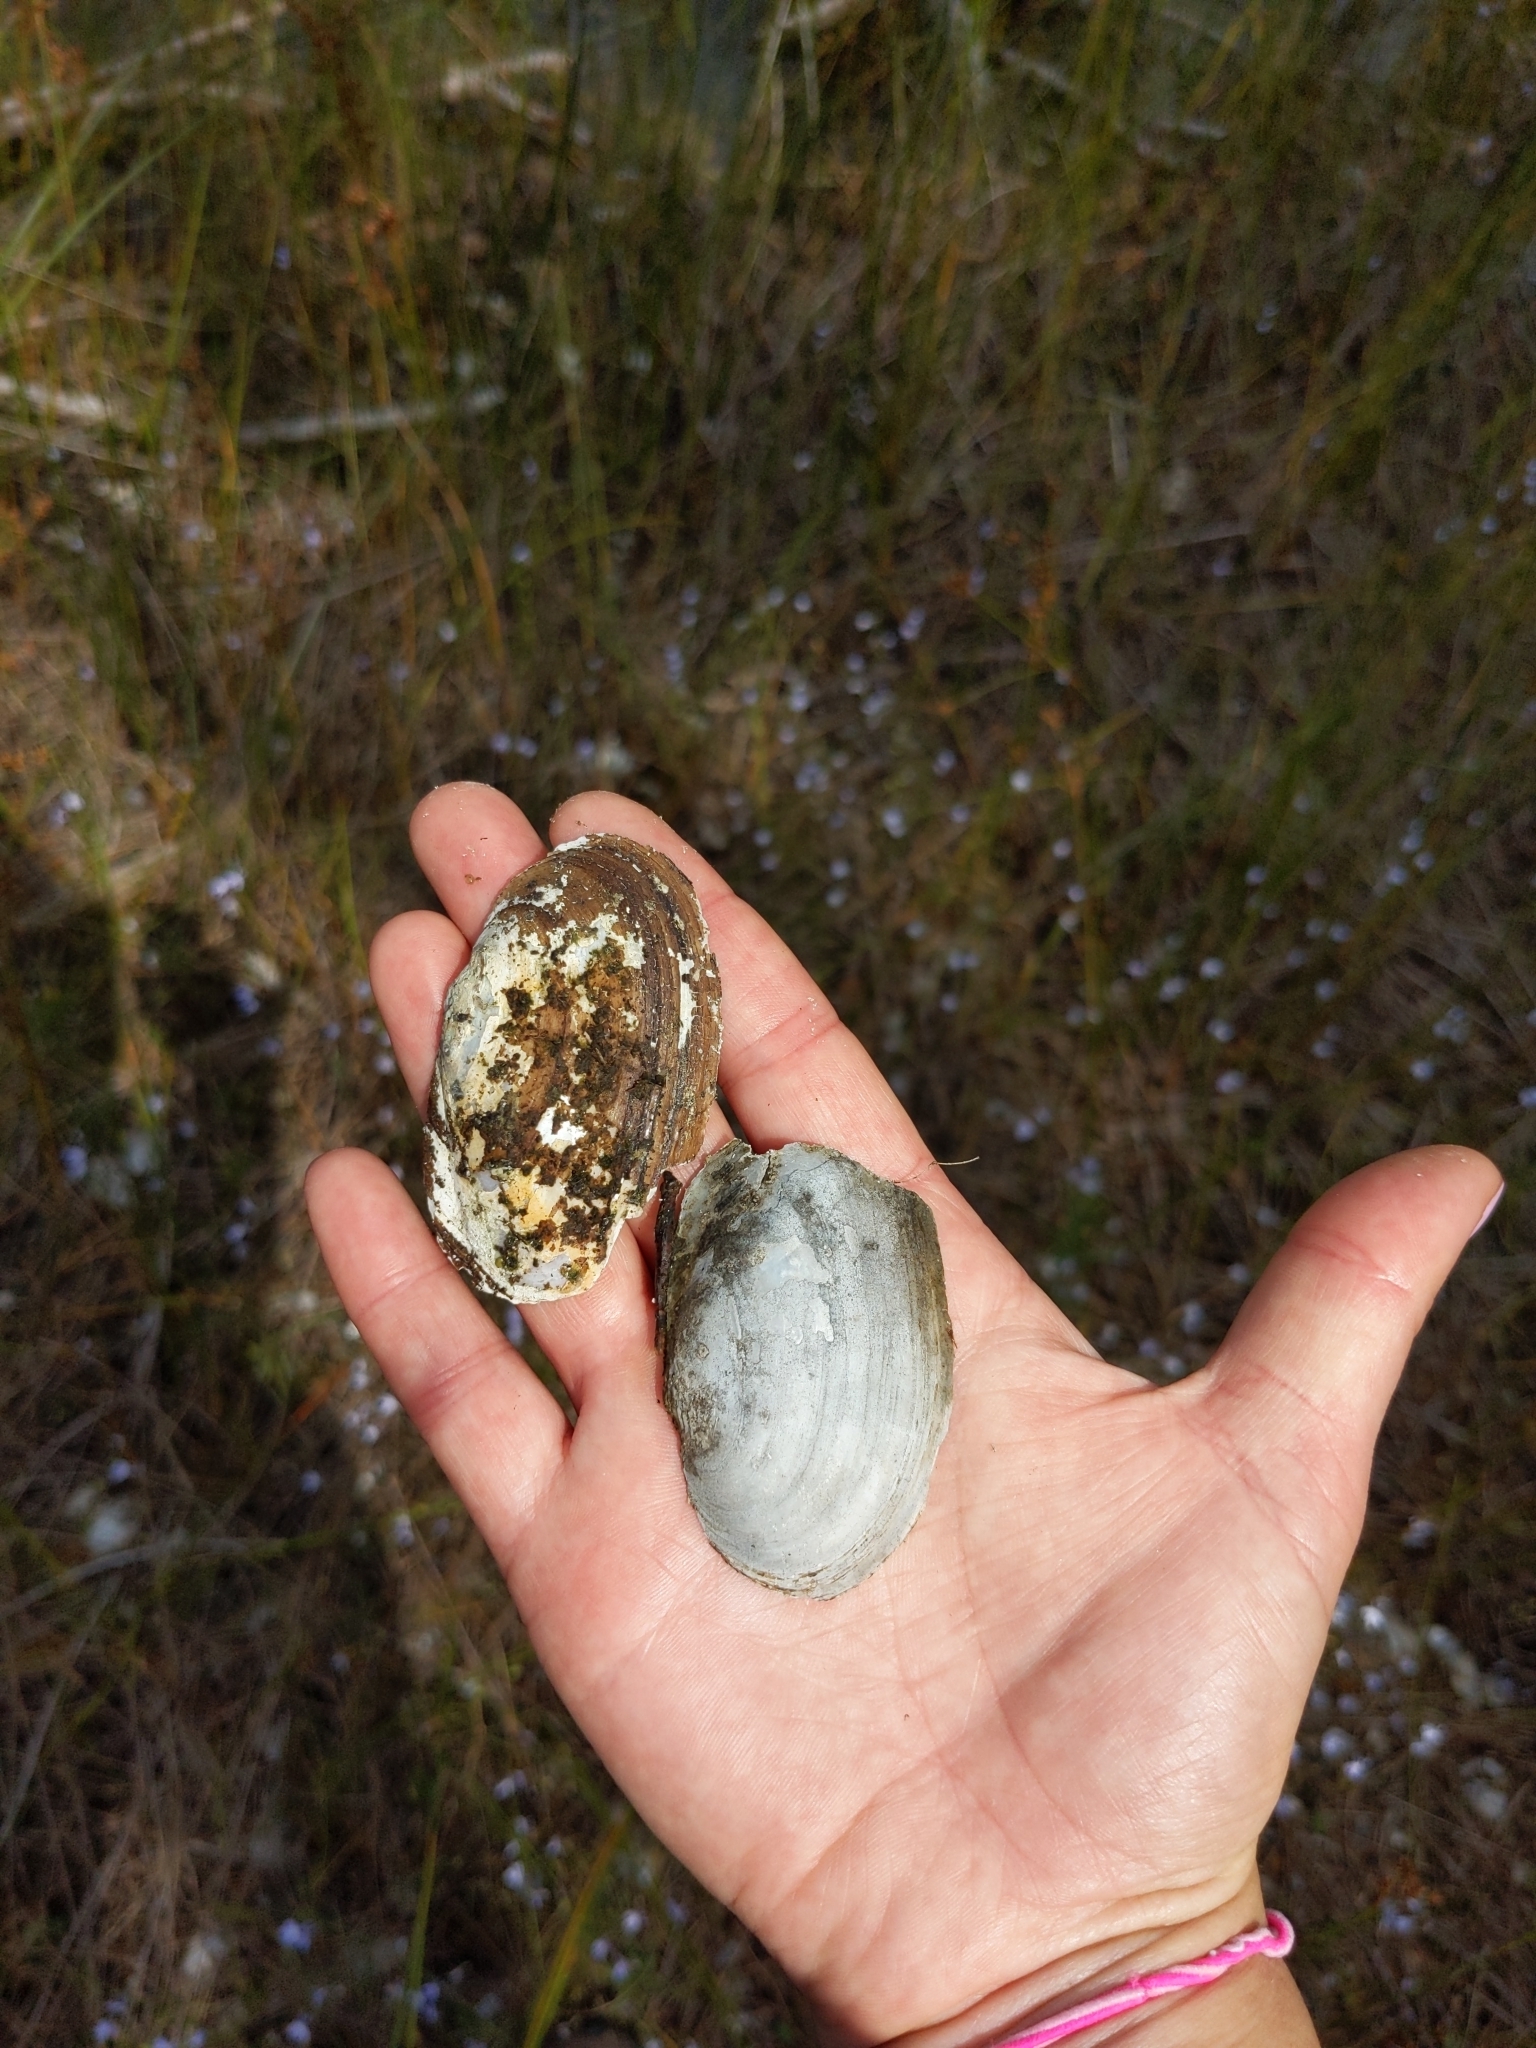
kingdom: Animalia
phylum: Mollusca
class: Bivalvia
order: Unionida
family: Unionidae
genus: Lasmigona
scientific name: Lasmigona compressa
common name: Creek heelsplitter
